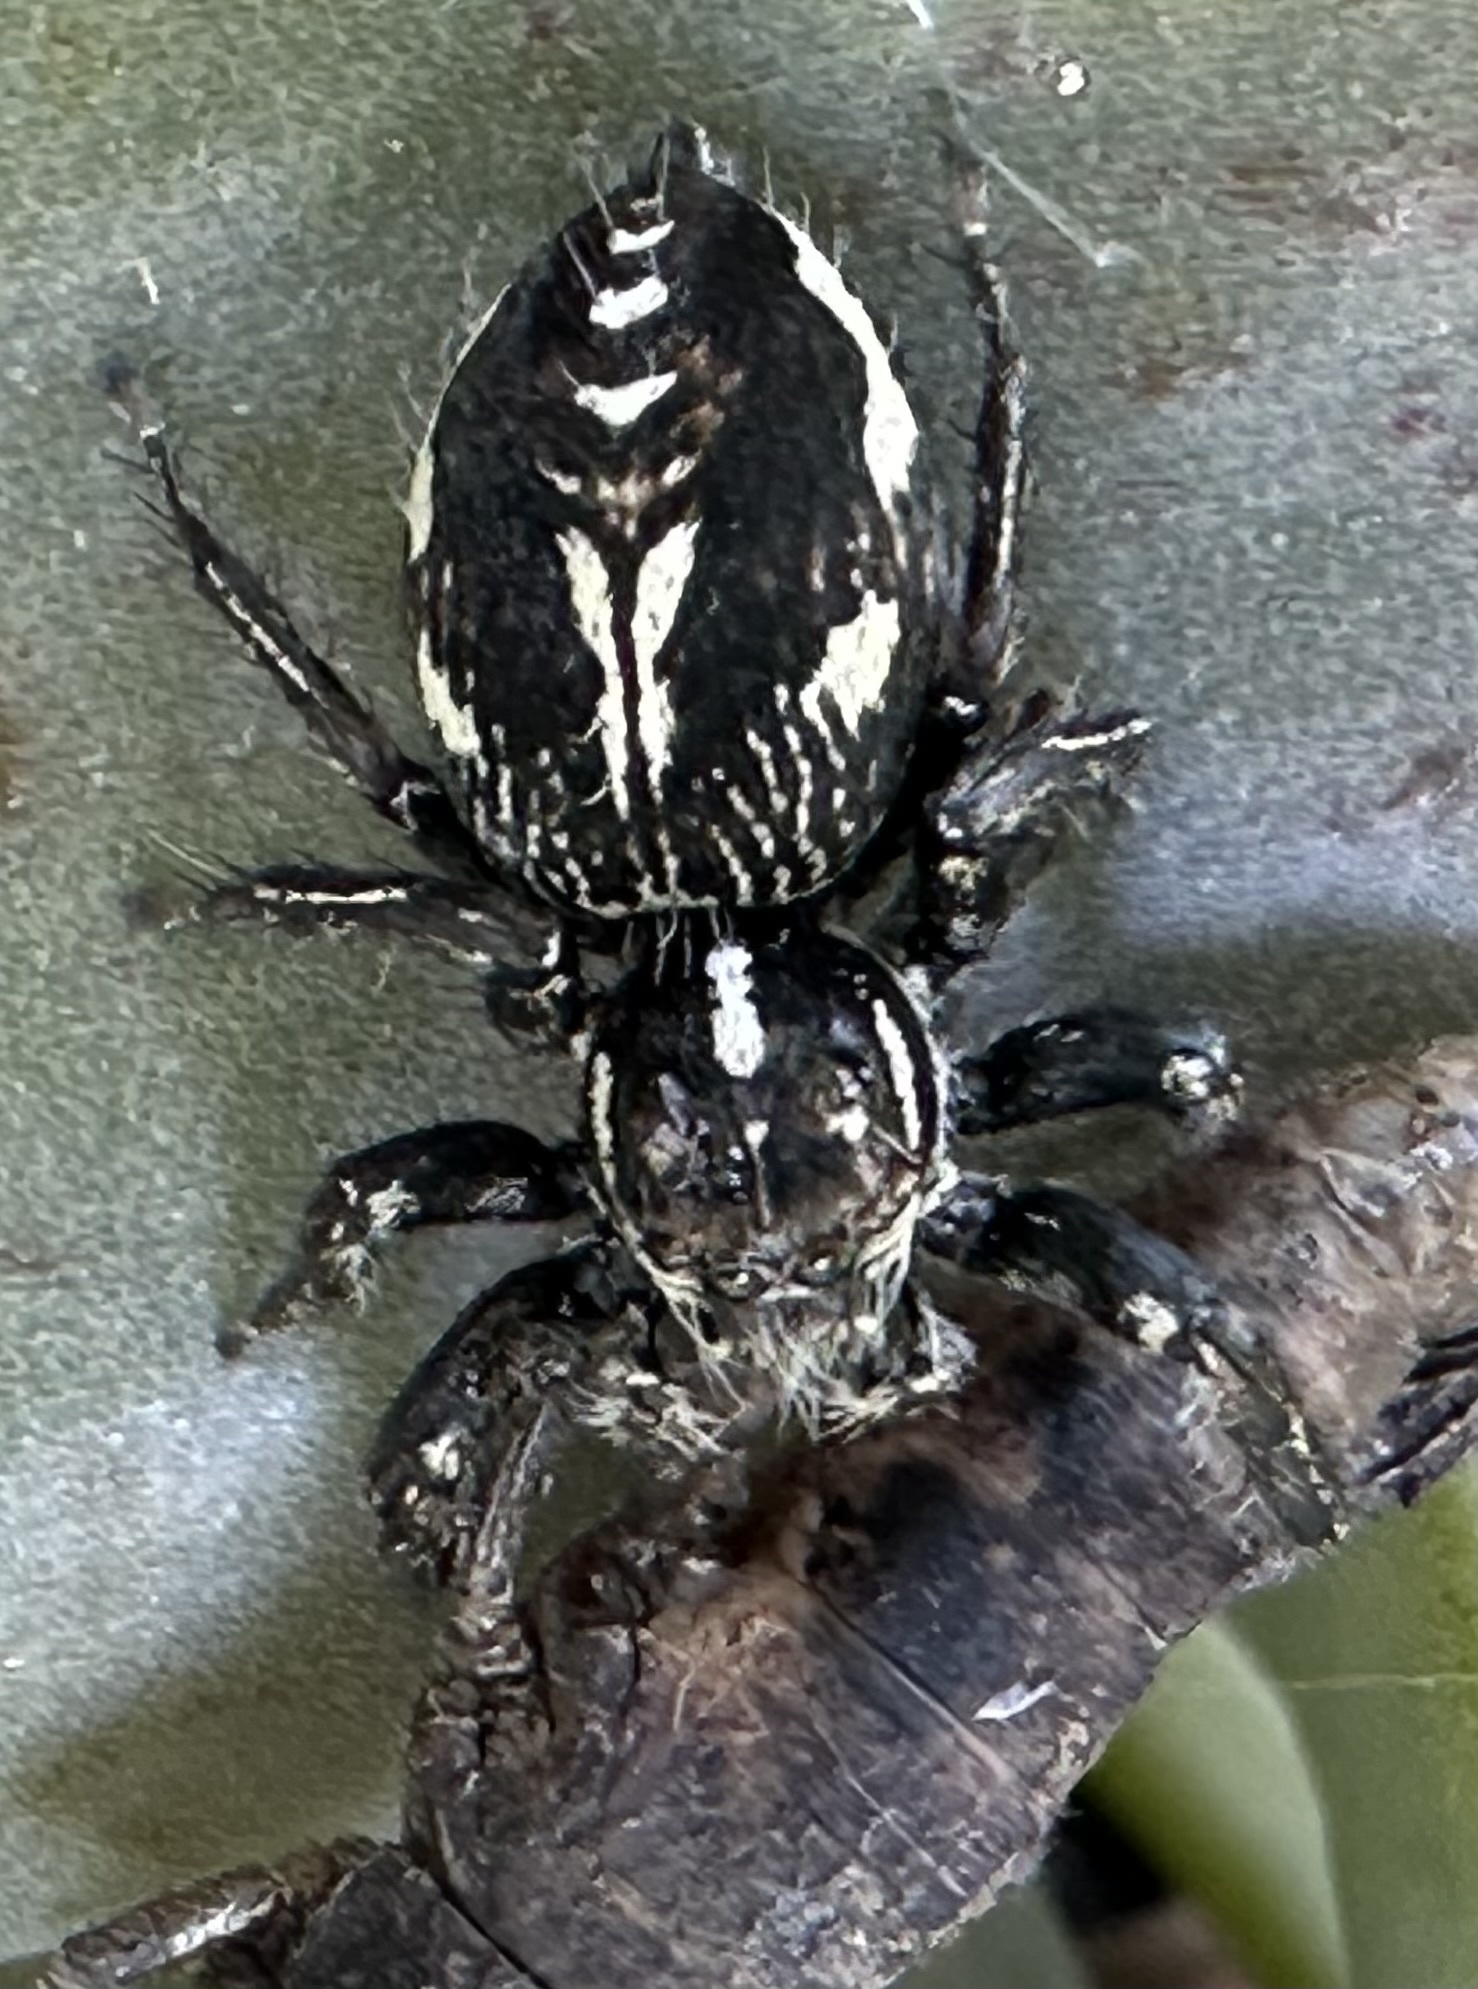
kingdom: Animalia
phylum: Arthropoda
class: Arachnida
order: Araneae
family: Salticidae
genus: Hyllus
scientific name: Hyllus argyrotoxus
